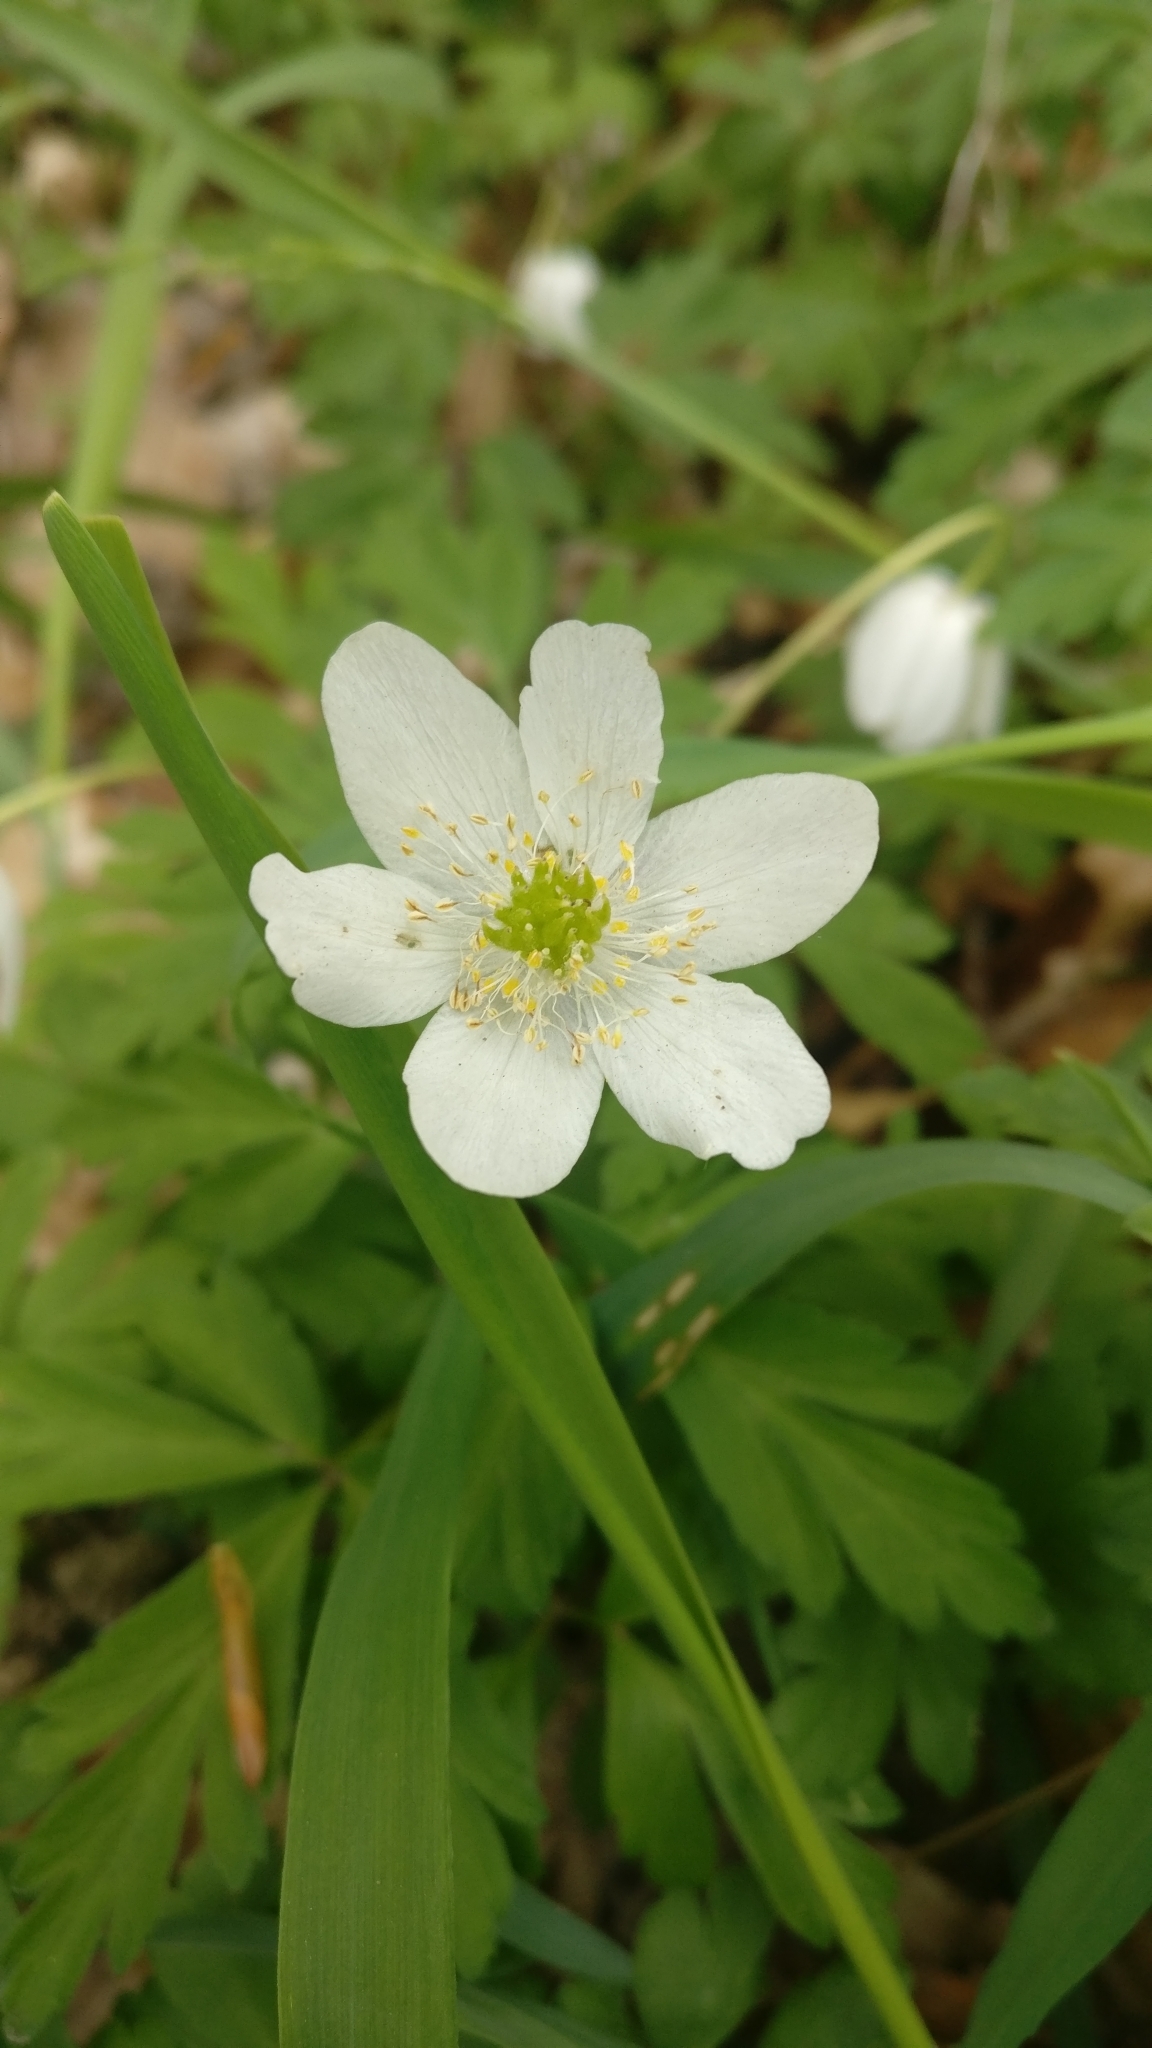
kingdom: Plantae
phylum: Tracheophyta
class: Magnoliopsida
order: Ranunculales
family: Ranunculaceae
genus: Anemone
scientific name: Anemone nemorosa
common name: Wood anemone
